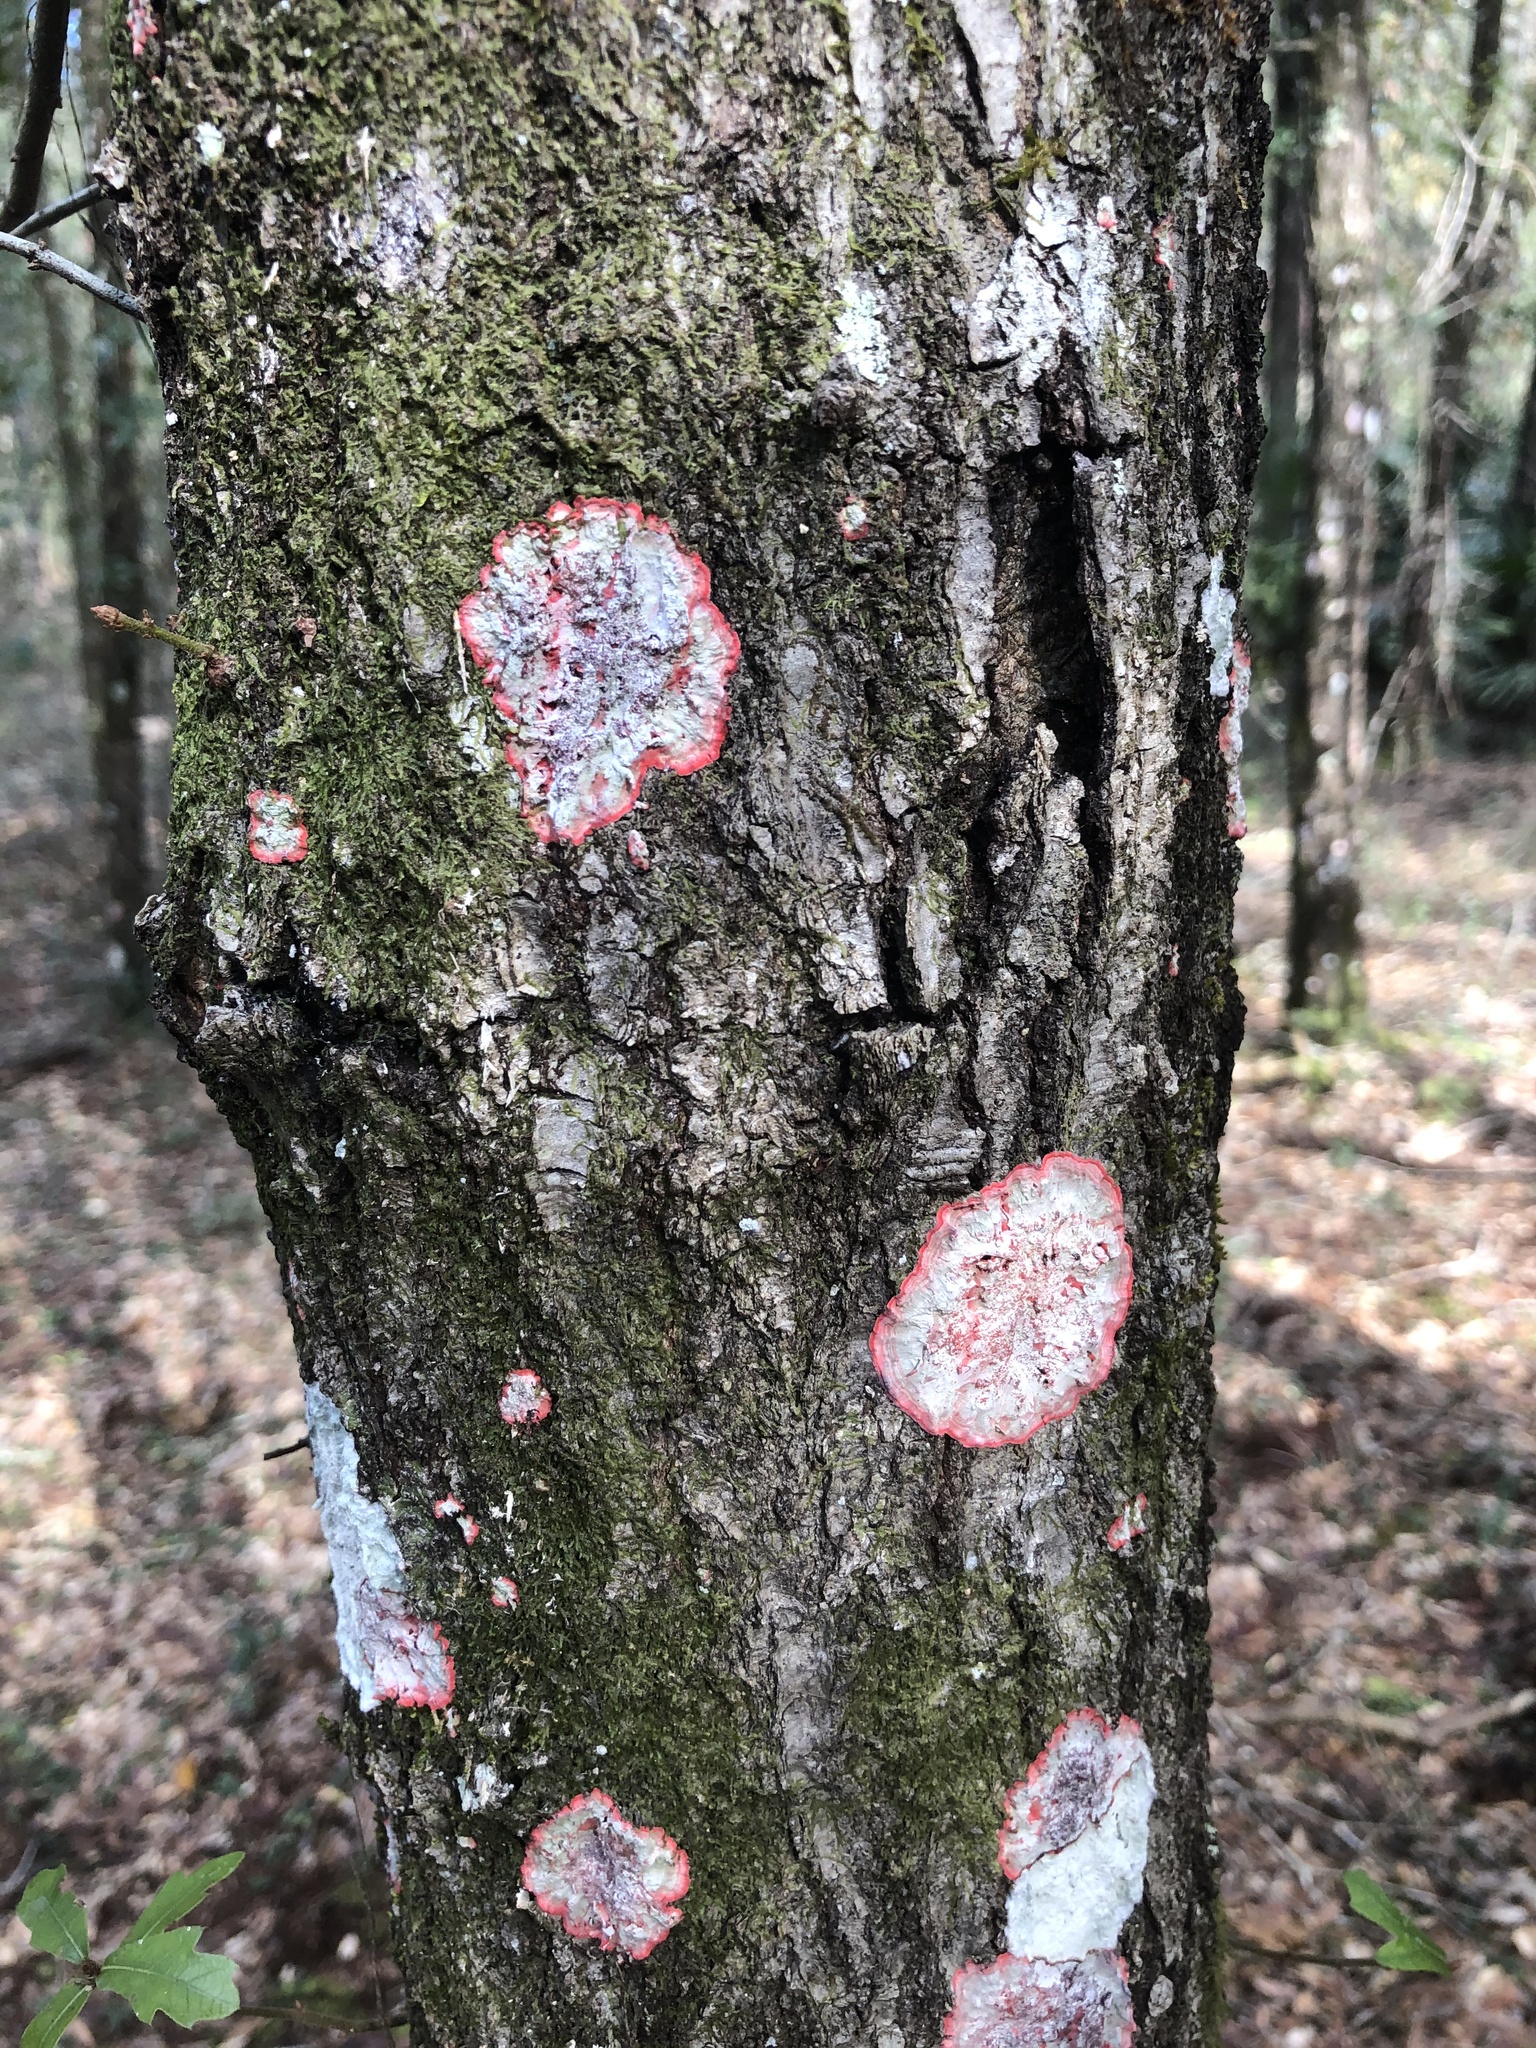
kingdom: Fungi
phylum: Ascomycota
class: Arthoniomycetes
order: Arthoniales
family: Arthoniaceae
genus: Herpothallon
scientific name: Herpothallon rubrocinctum
